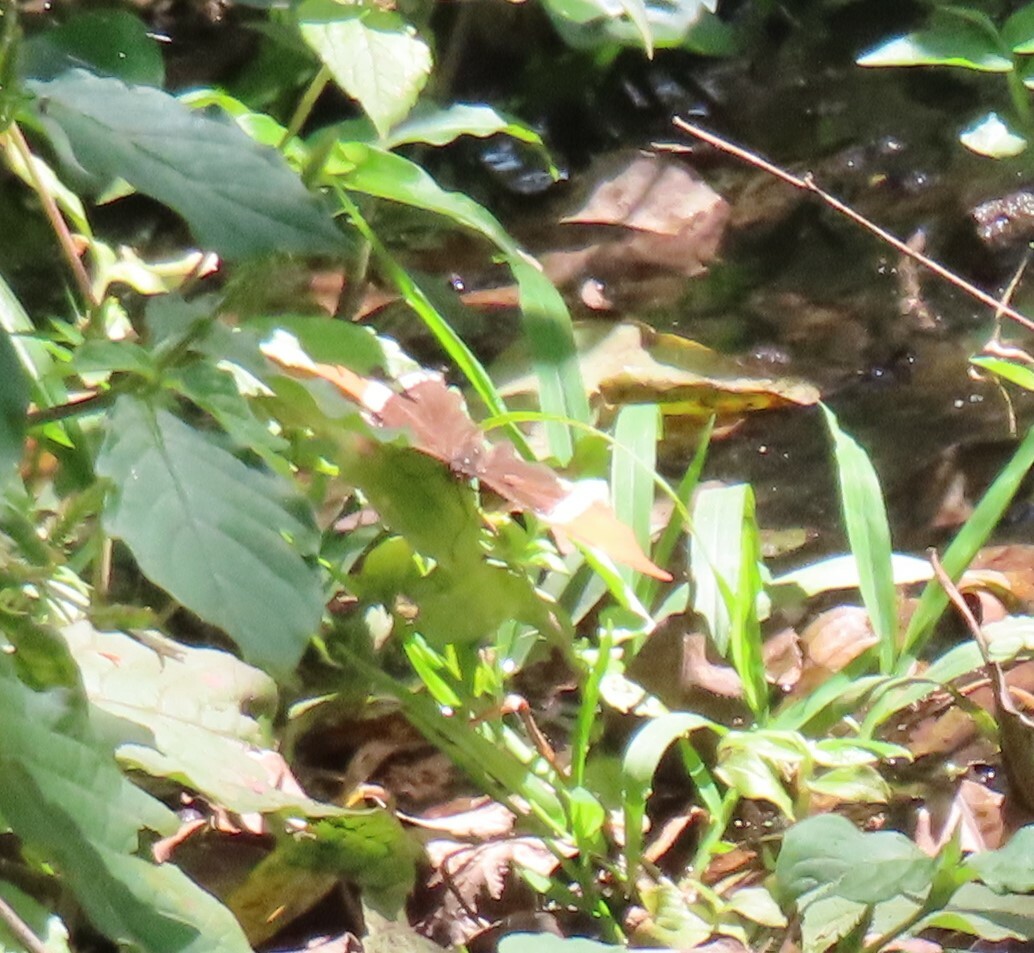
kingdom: Animalia
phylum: Arthropoda
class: Insecta
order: Lepidoptera
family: Nymphalidae
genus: Siproeta
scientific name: Siproeta epaphus
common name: Rusty-tipped page
